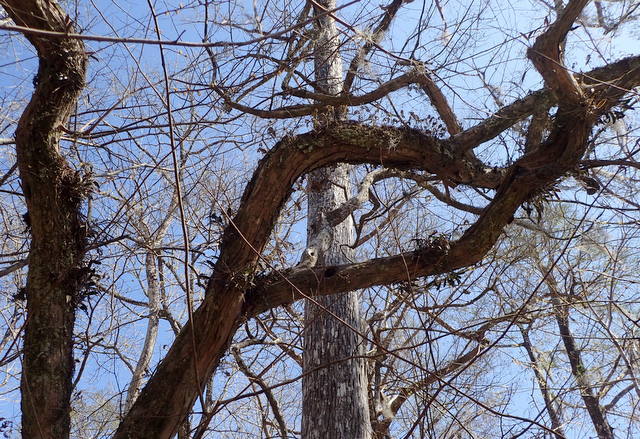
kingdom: Plantae
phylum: Tracheophyta
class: Liliopsida
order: Asparagales
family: Orchidaceae
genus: Epidendrum
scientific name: Epidendrum conopseum
